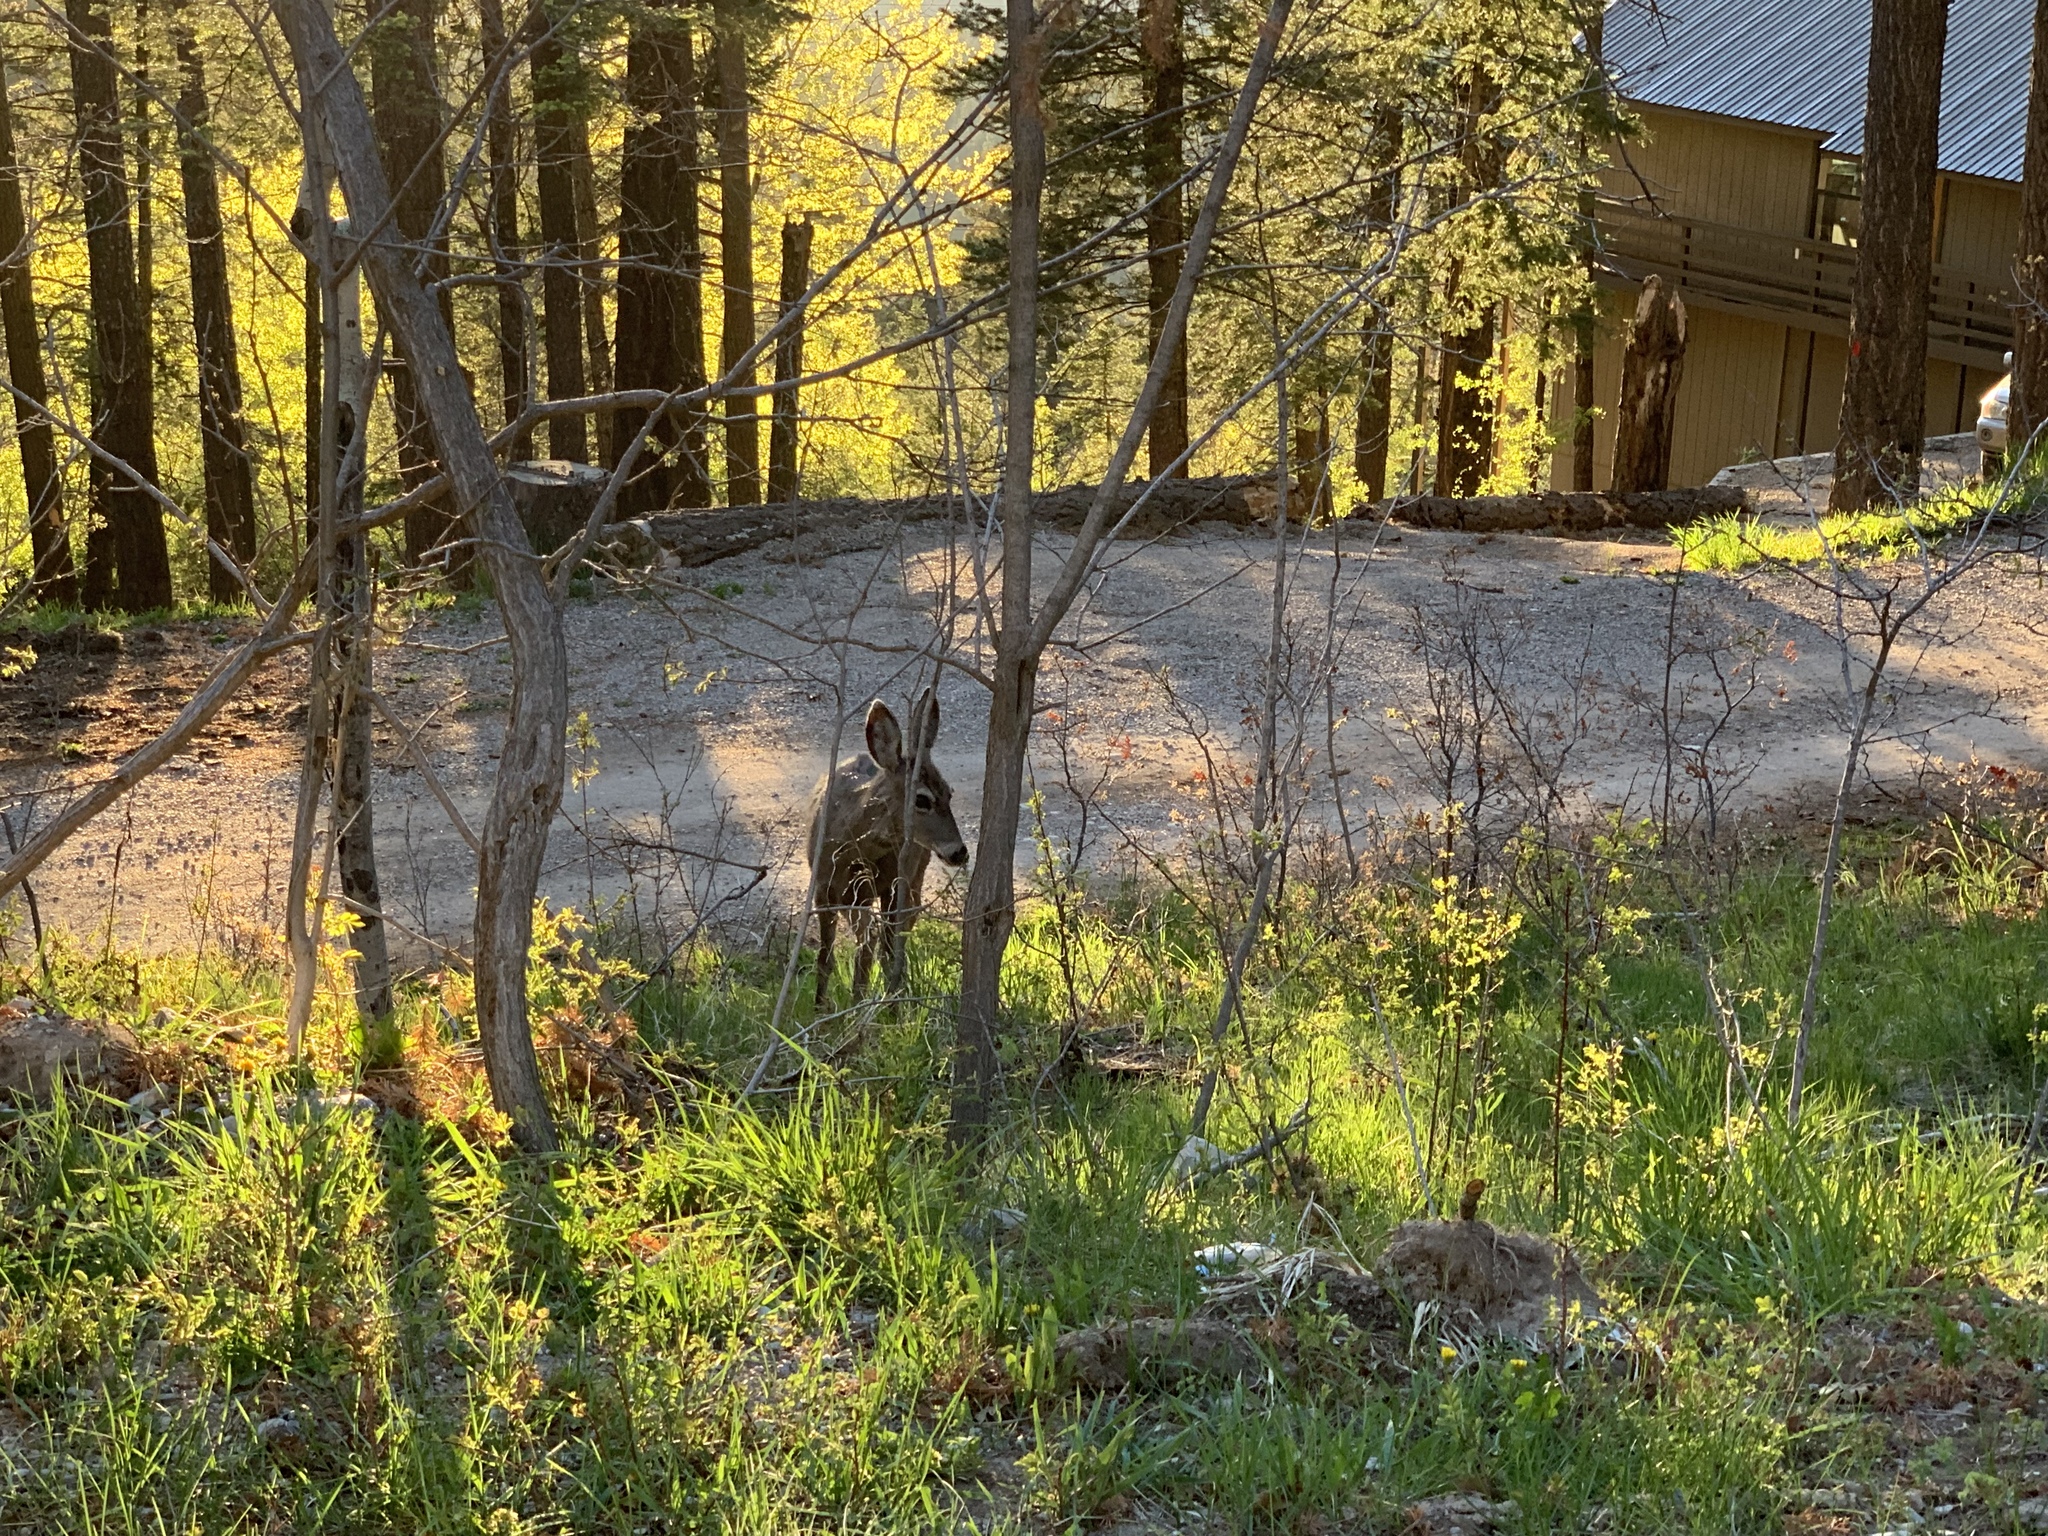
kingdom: Animalia
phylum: Chordata
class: Mammalia
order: Artiodactyla
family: Cervidae
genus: Odocoileus
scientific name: Odocoileus hemionus
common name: Mule deer
